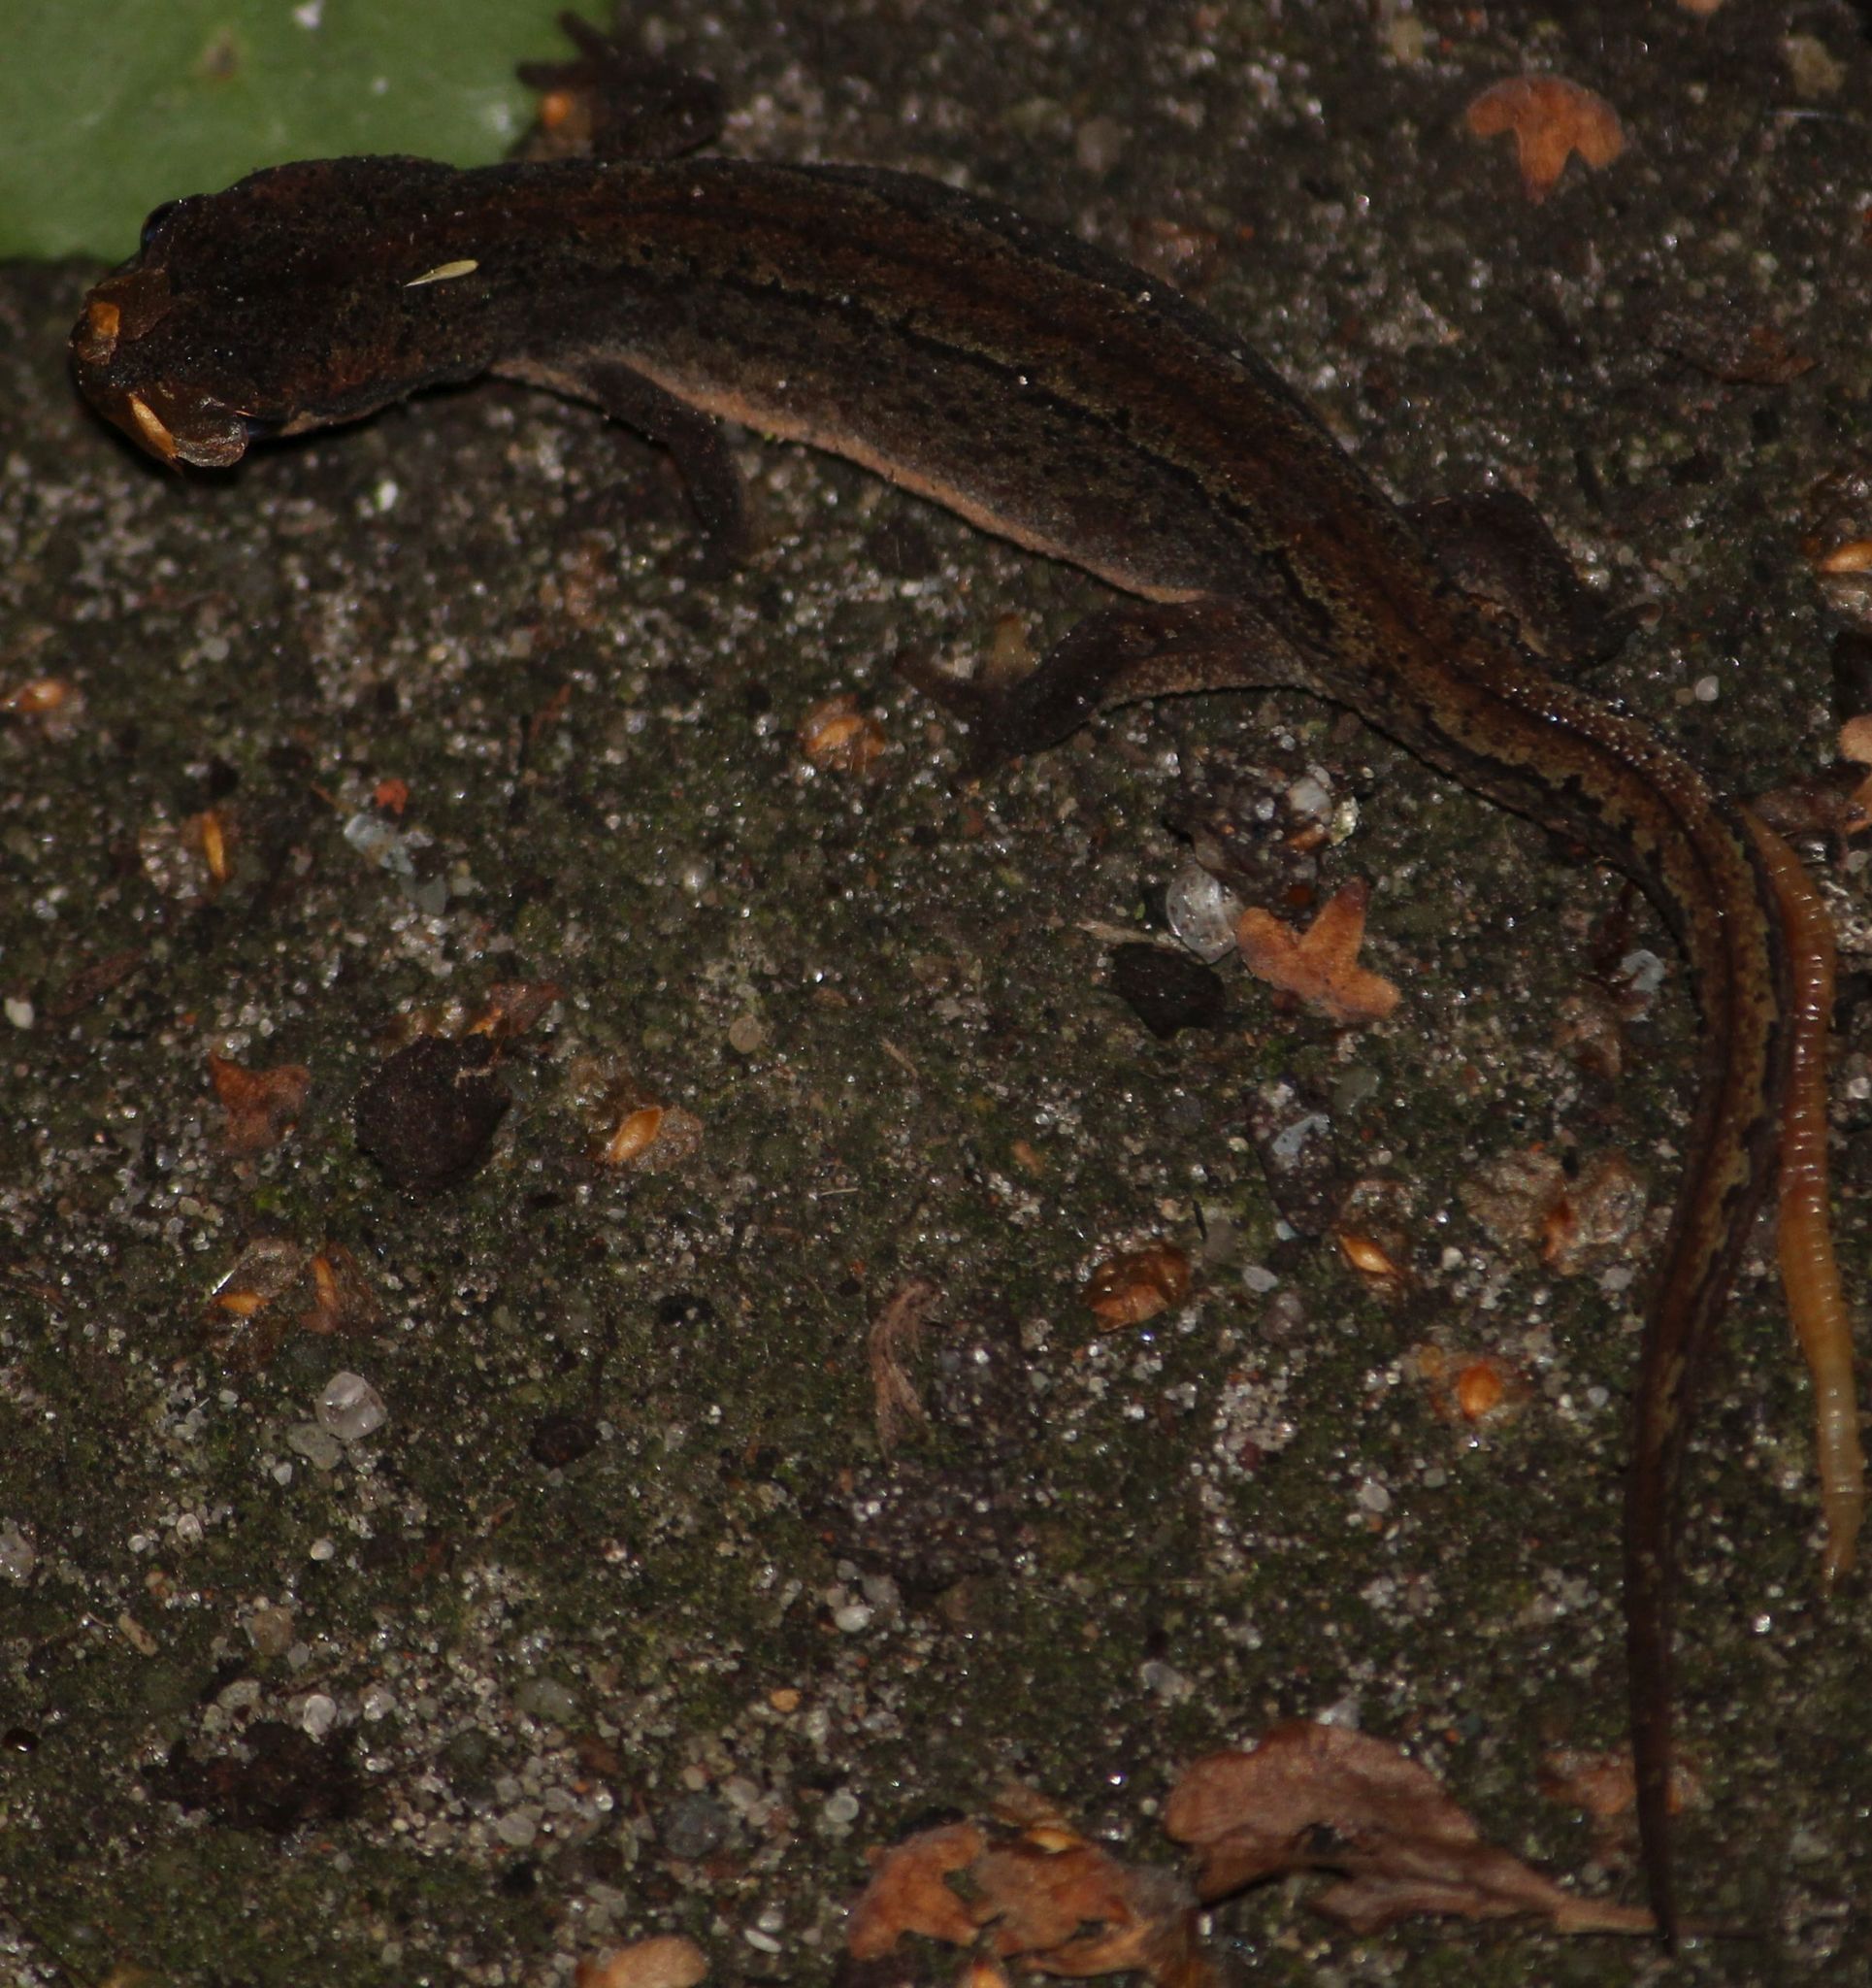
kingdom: Animalia
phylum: Chordata
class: Amphibia
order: Caudata
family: Salamandridae
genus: Lissotriton
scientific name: Lissotriton vulgaris
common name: Smooth newt
